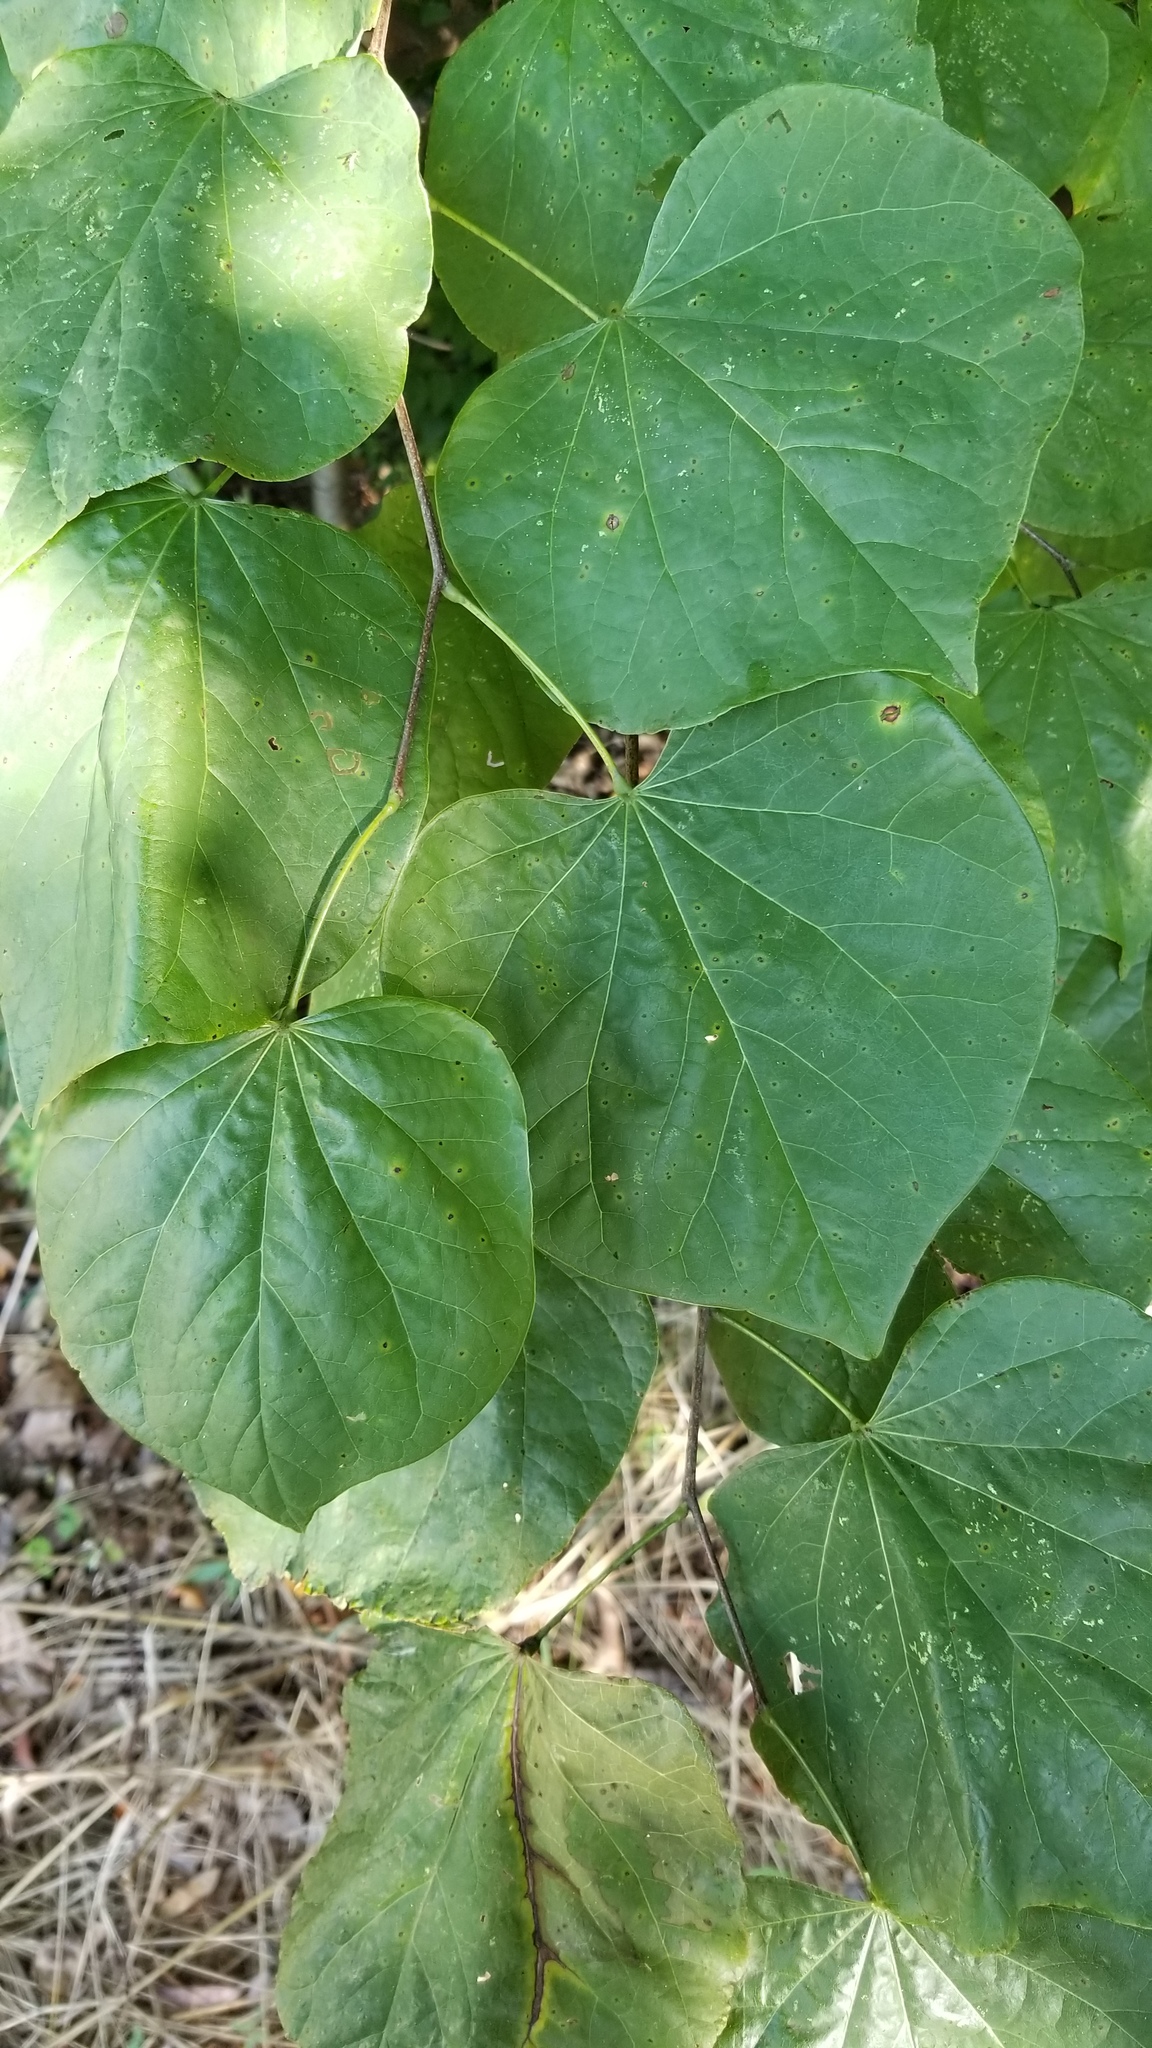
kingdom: Plantae
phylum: Tracheophyta
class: Magnoliopsida
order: Fabales
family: Fabaceae
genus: Cercis
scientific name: Cercis canadensis
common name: Eastern redbud
